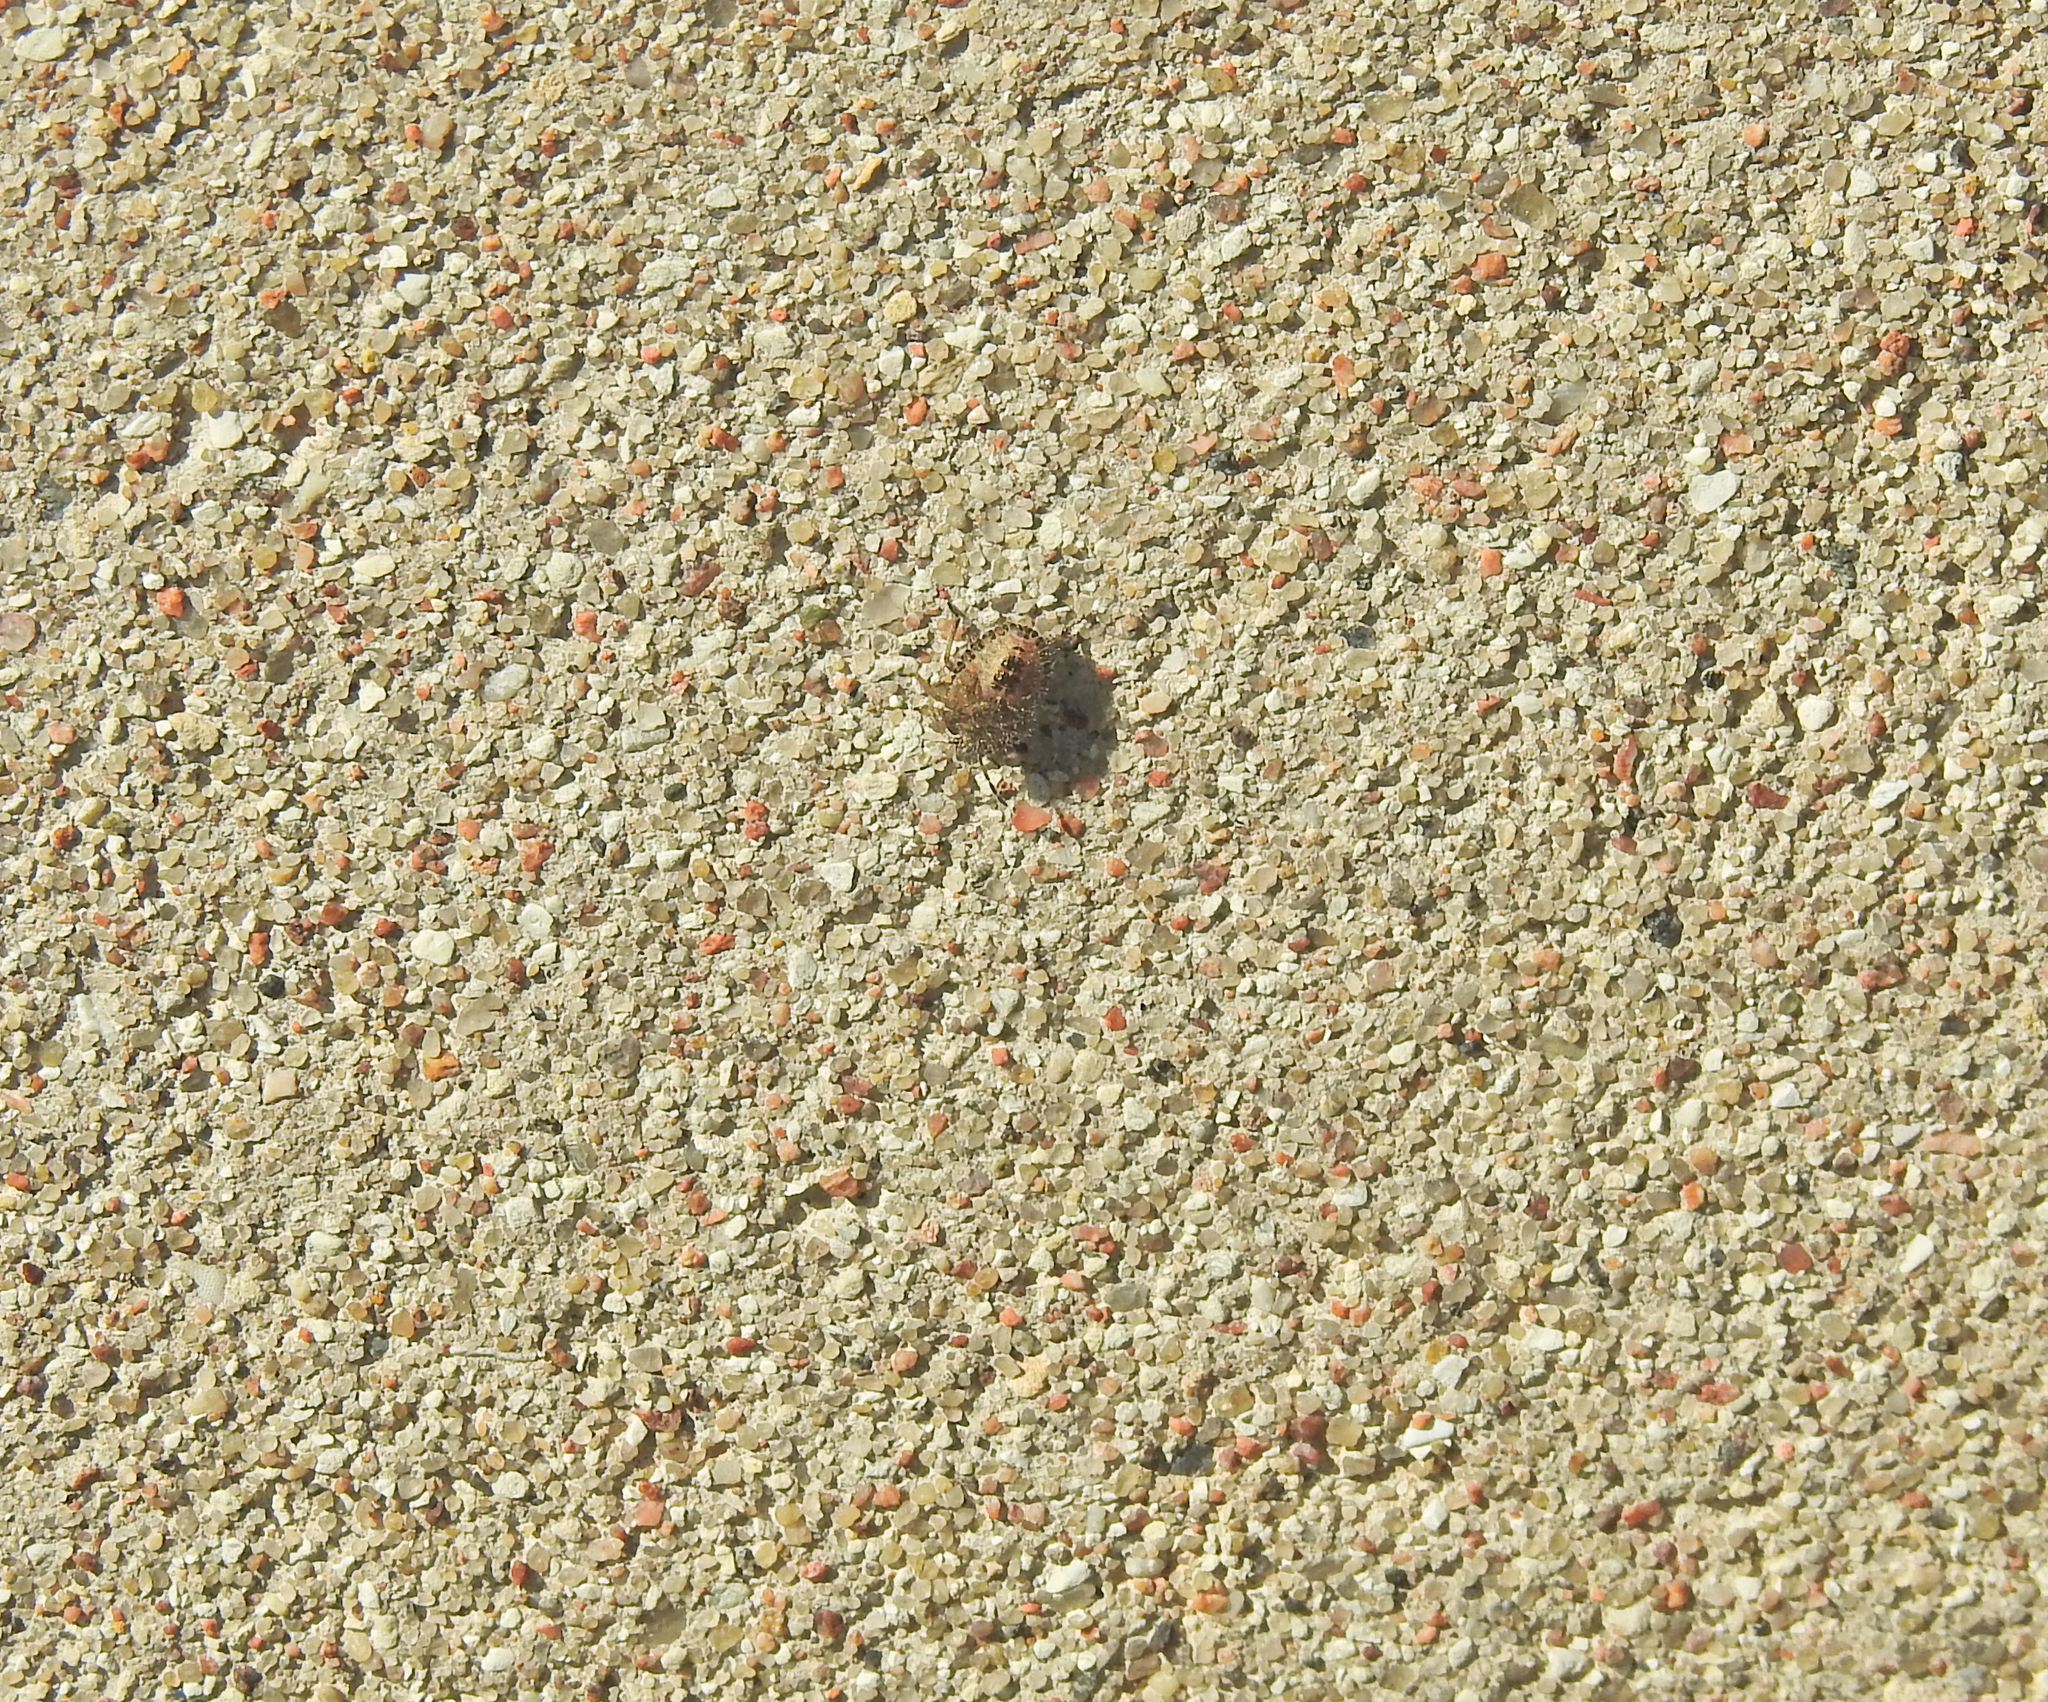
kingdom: Animalia
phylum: Arthropoda
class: Insecta
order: Hemiptera
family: Pentatomidae
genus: Dolycoris
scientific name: Dolycoris baccarum
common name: Sloe bug
